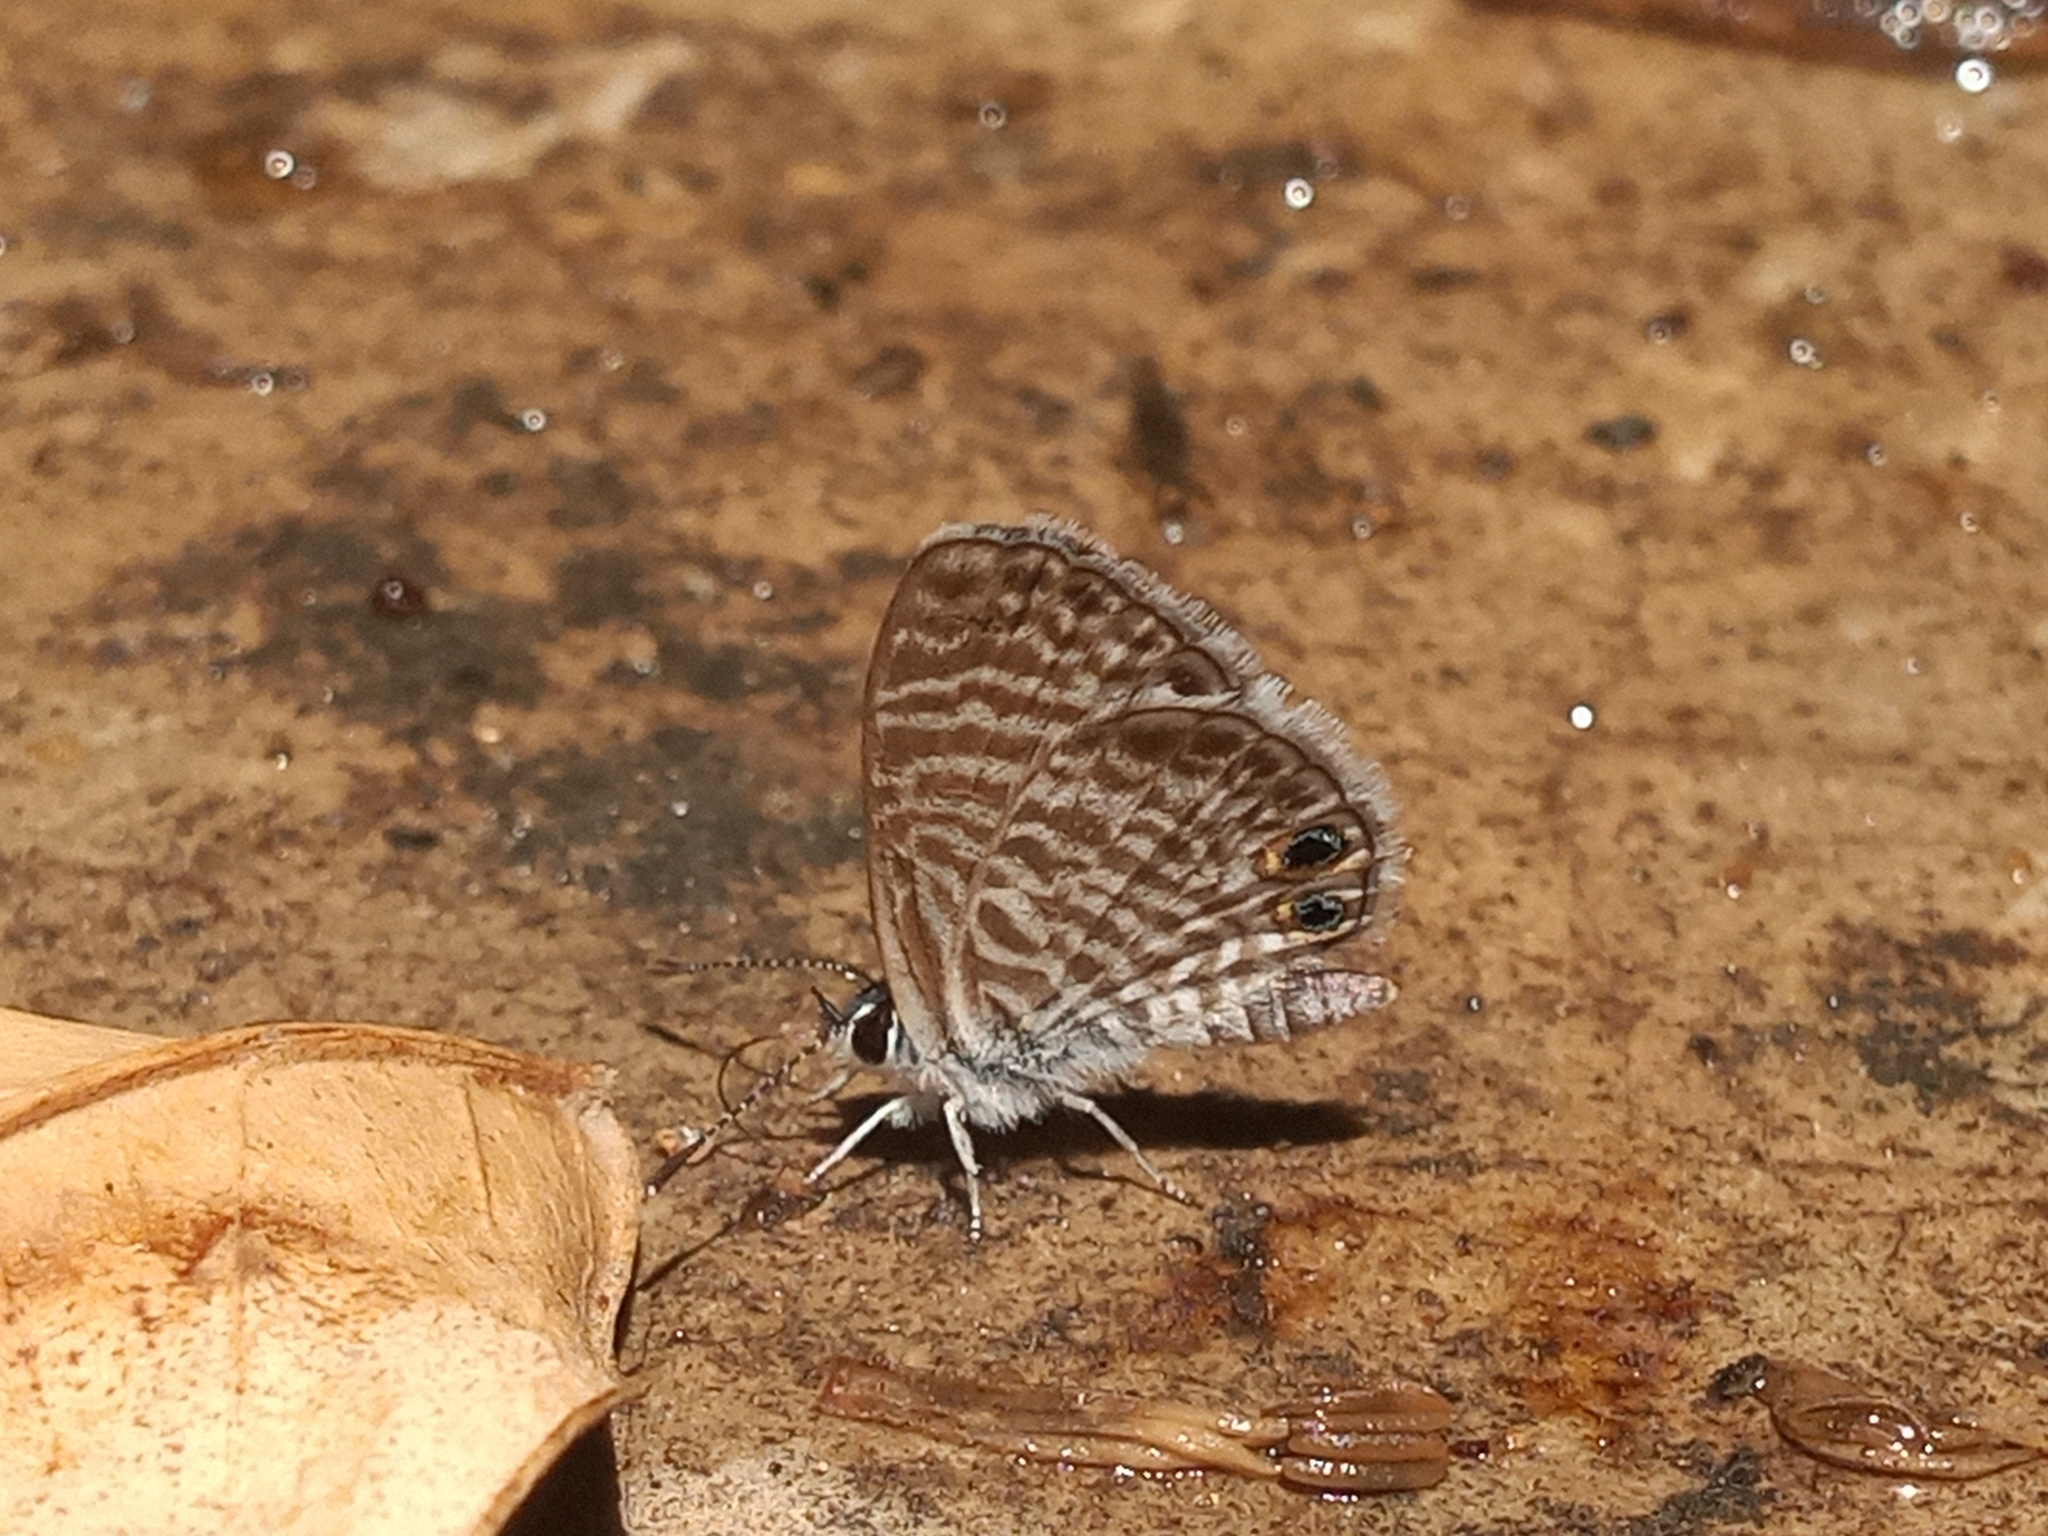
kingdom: Animalia
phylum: Arthropoda
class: Insecta
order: Lepidoptera
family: Lycaenidae
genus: Leptotes
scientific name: Leptotes marina
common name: Marine blue
